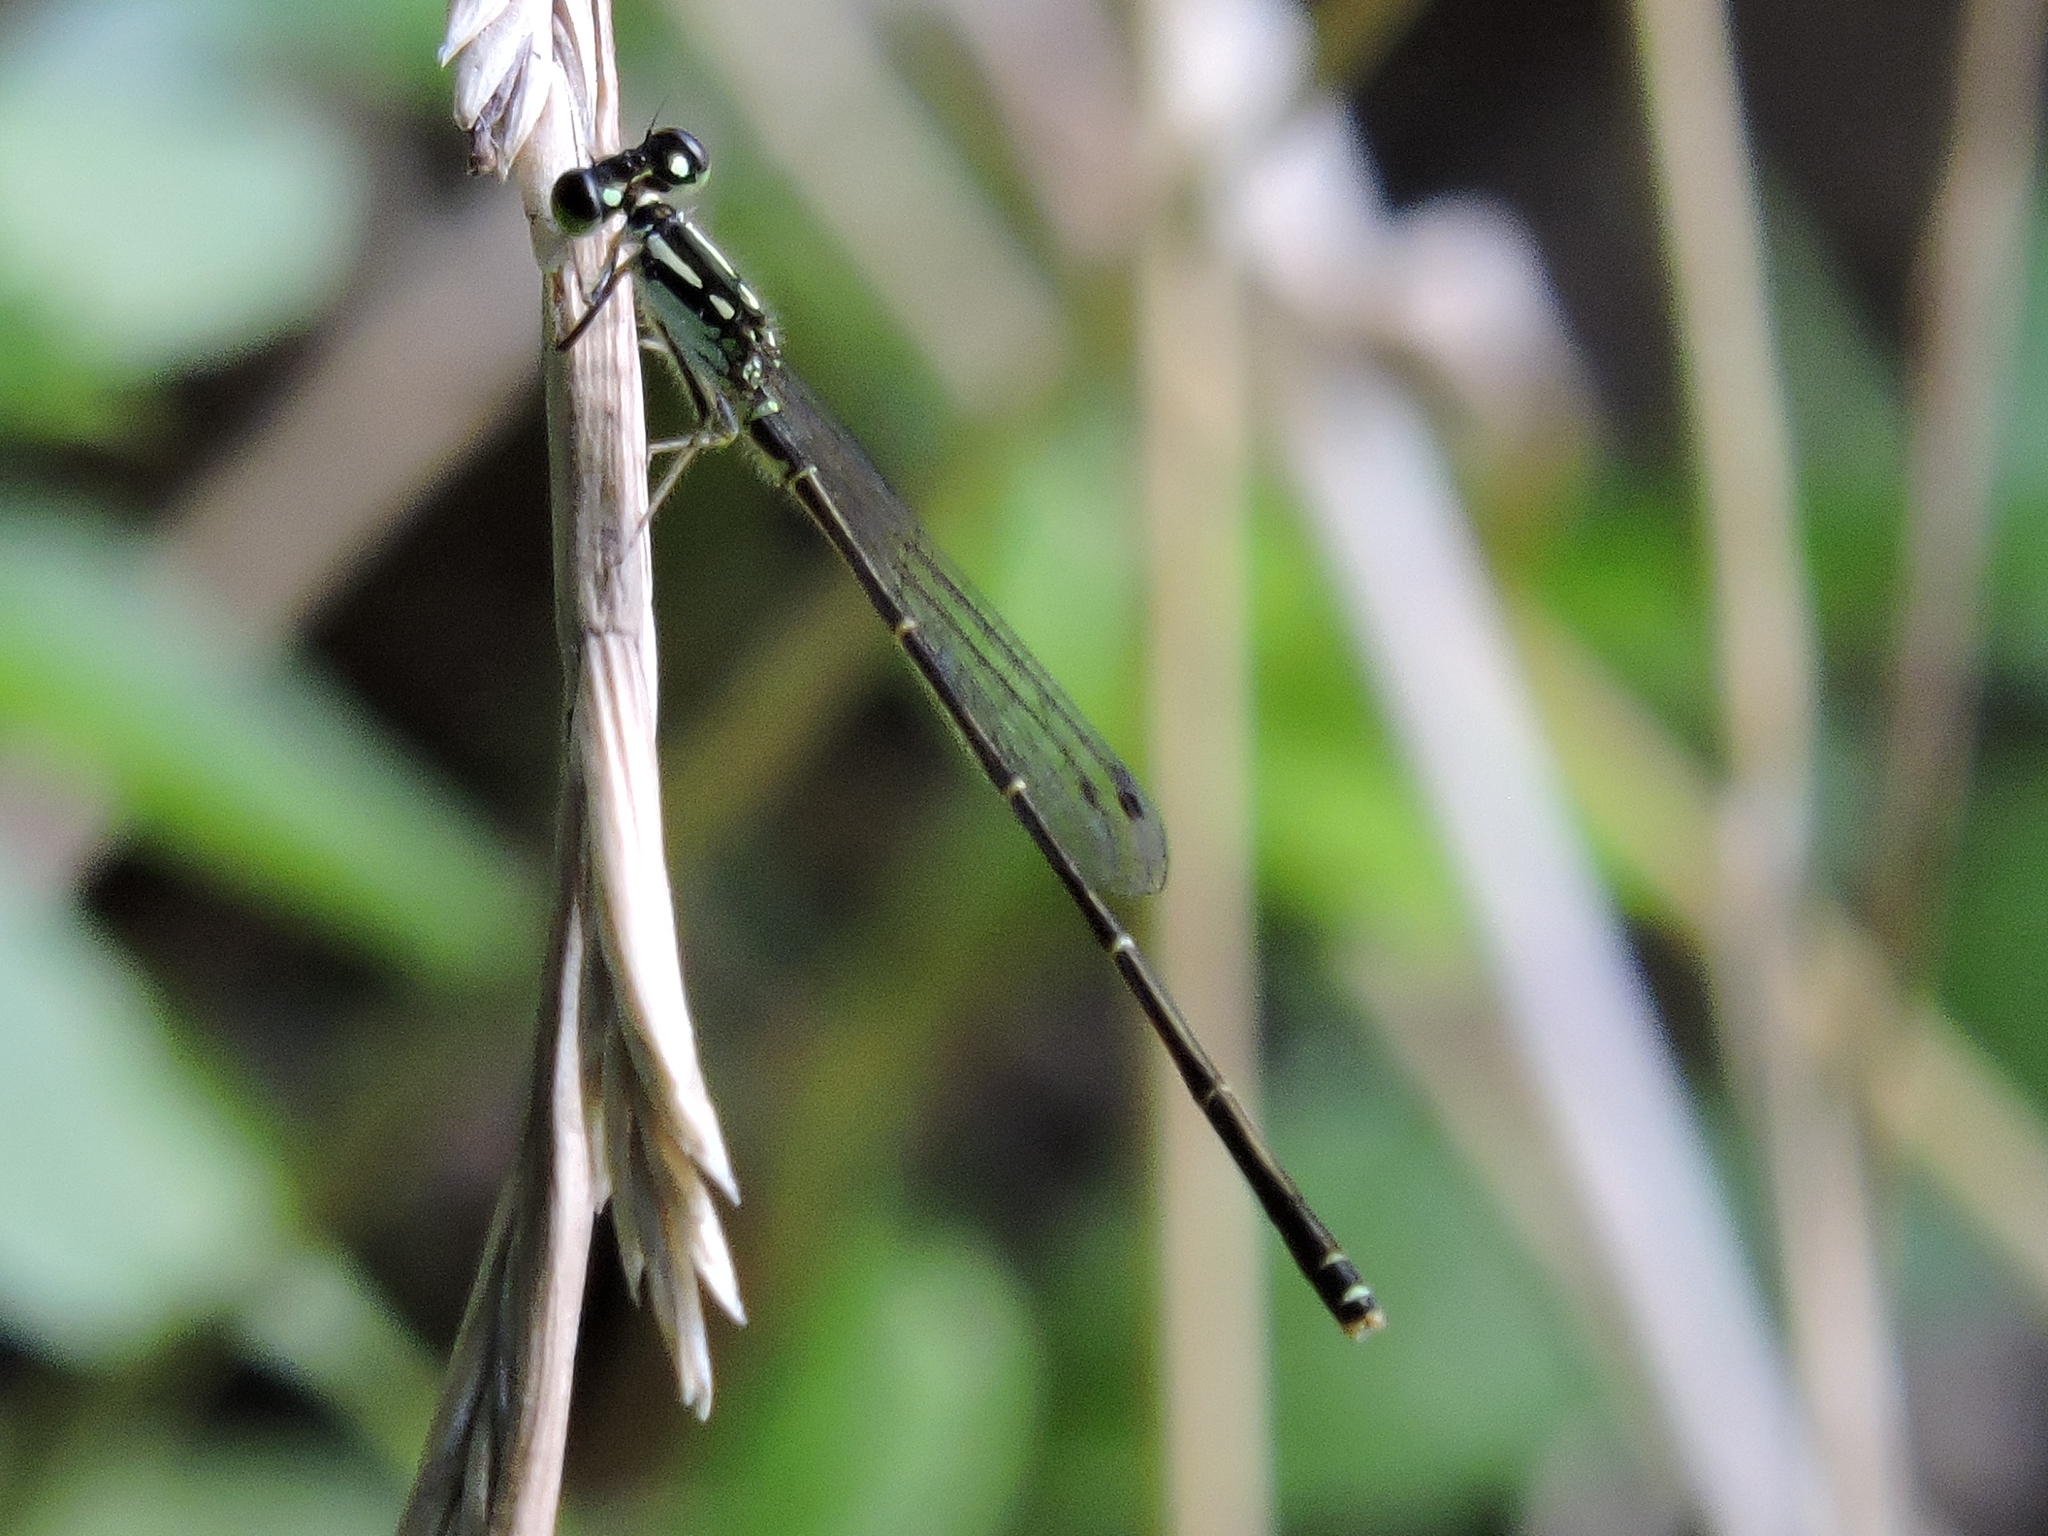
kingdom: Animalia
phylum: Arthropoda
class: Insecta
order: Odonata
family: Coenagrionidae
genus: Ischnura
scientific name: Ischnura posita
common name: Fragile forktail
